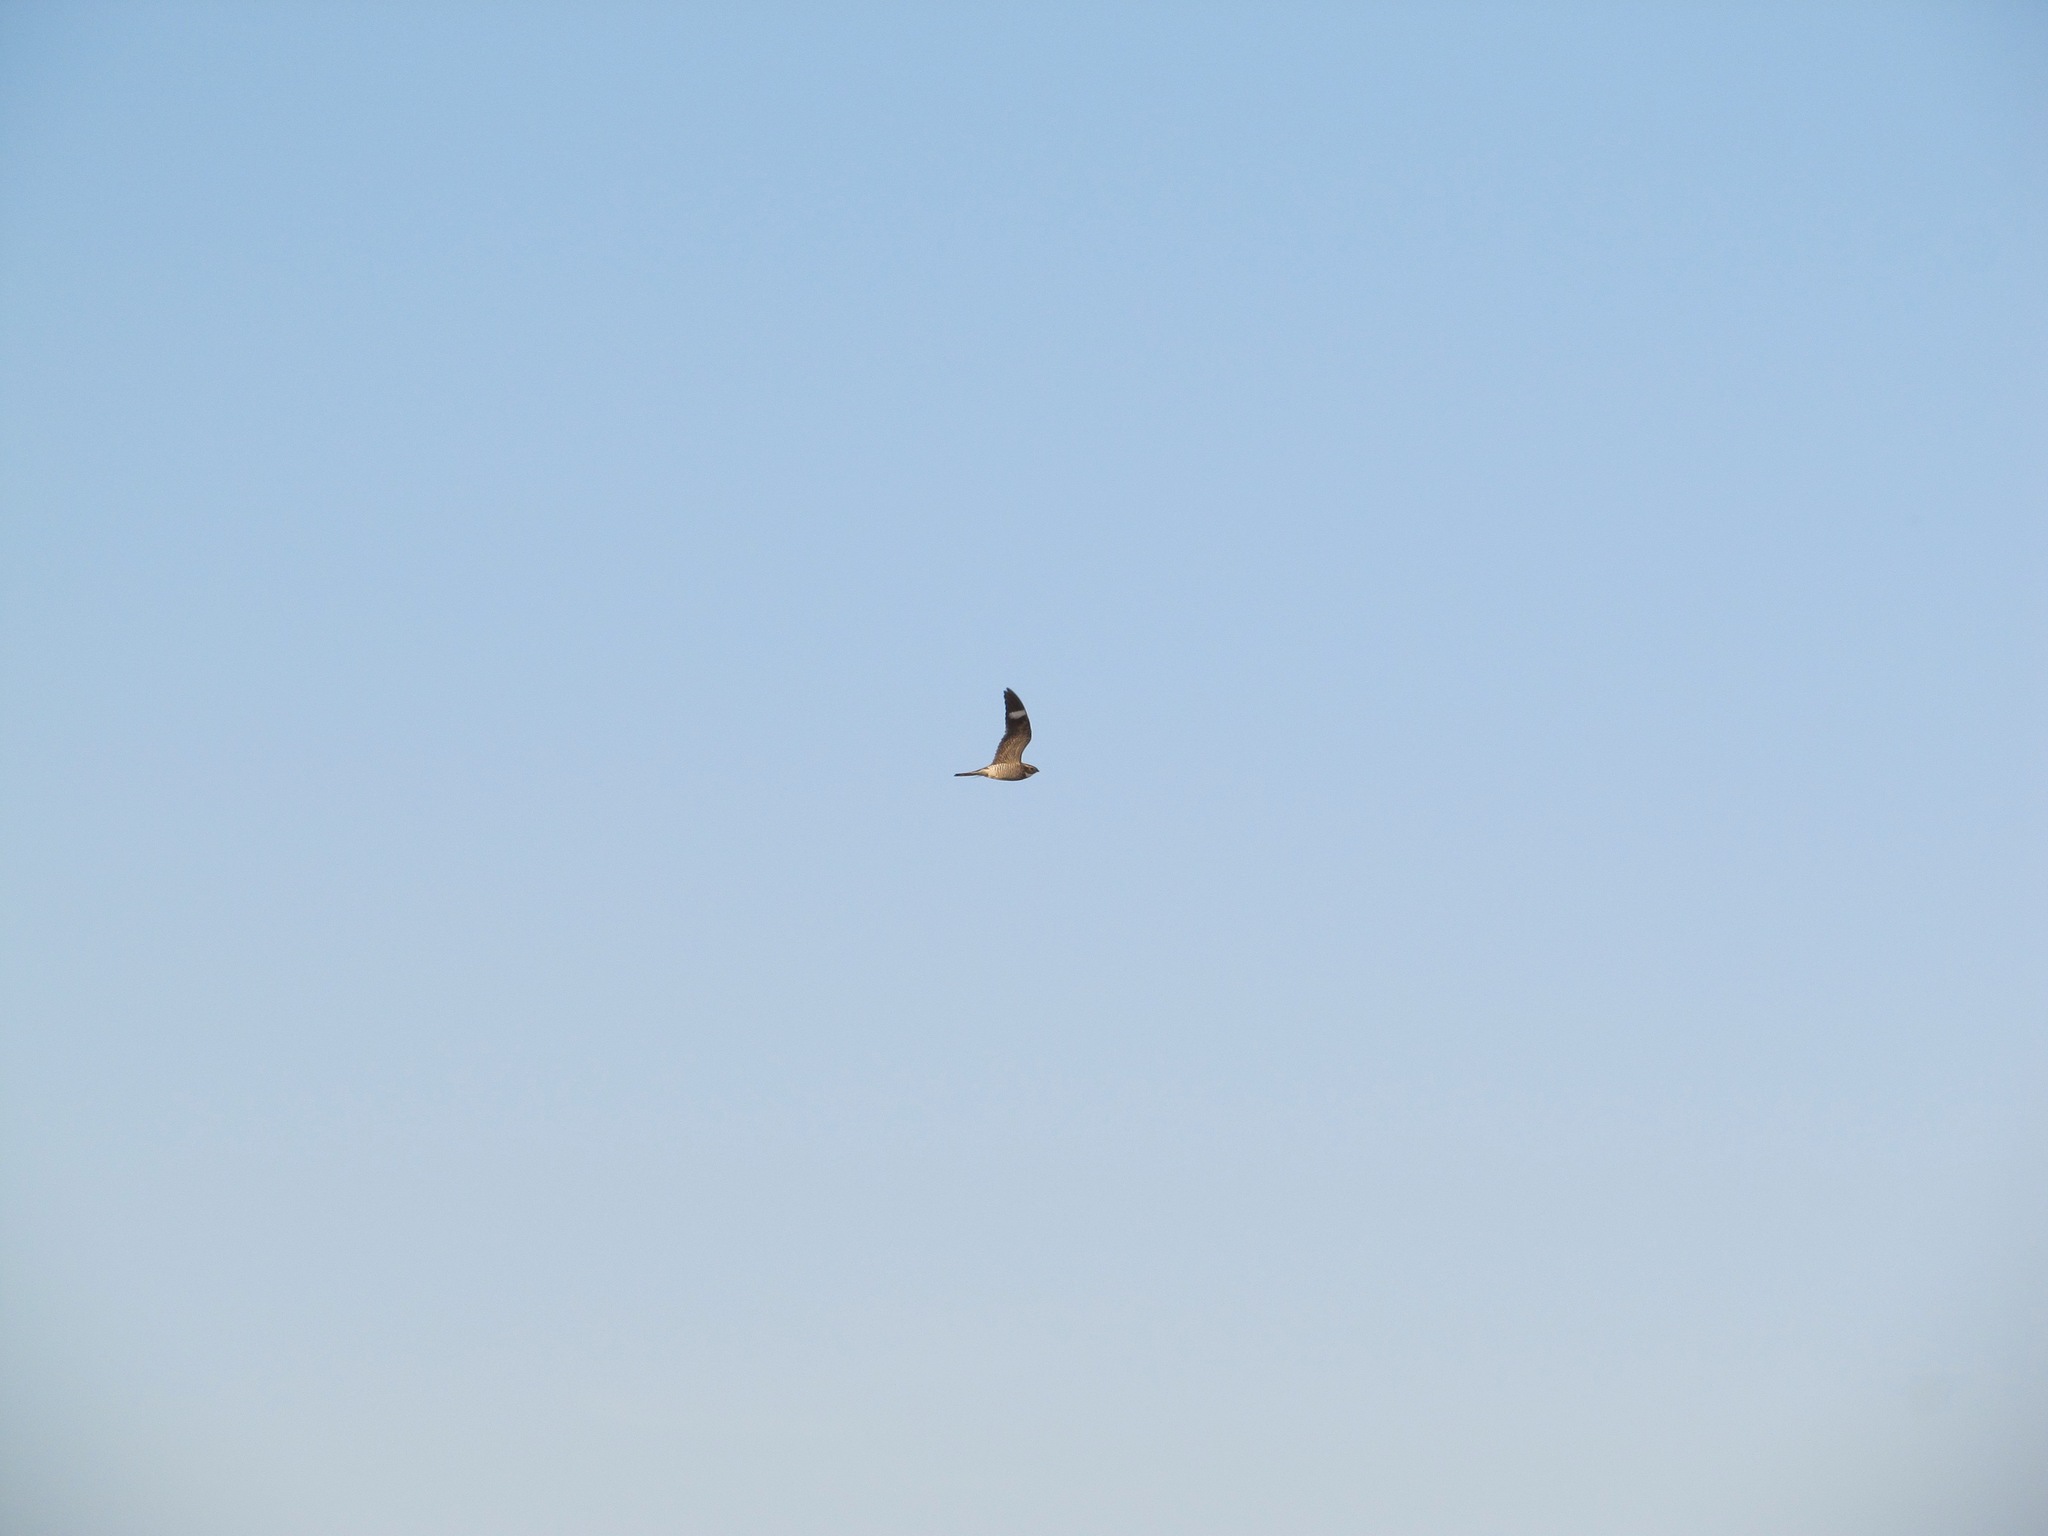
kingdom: Animalia
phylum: Chordata
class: Aves
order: Caprimulgiformes
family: Caprimulgidae
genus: Chordeiles
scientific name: Chordeiles minor
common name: Common nighthawk
